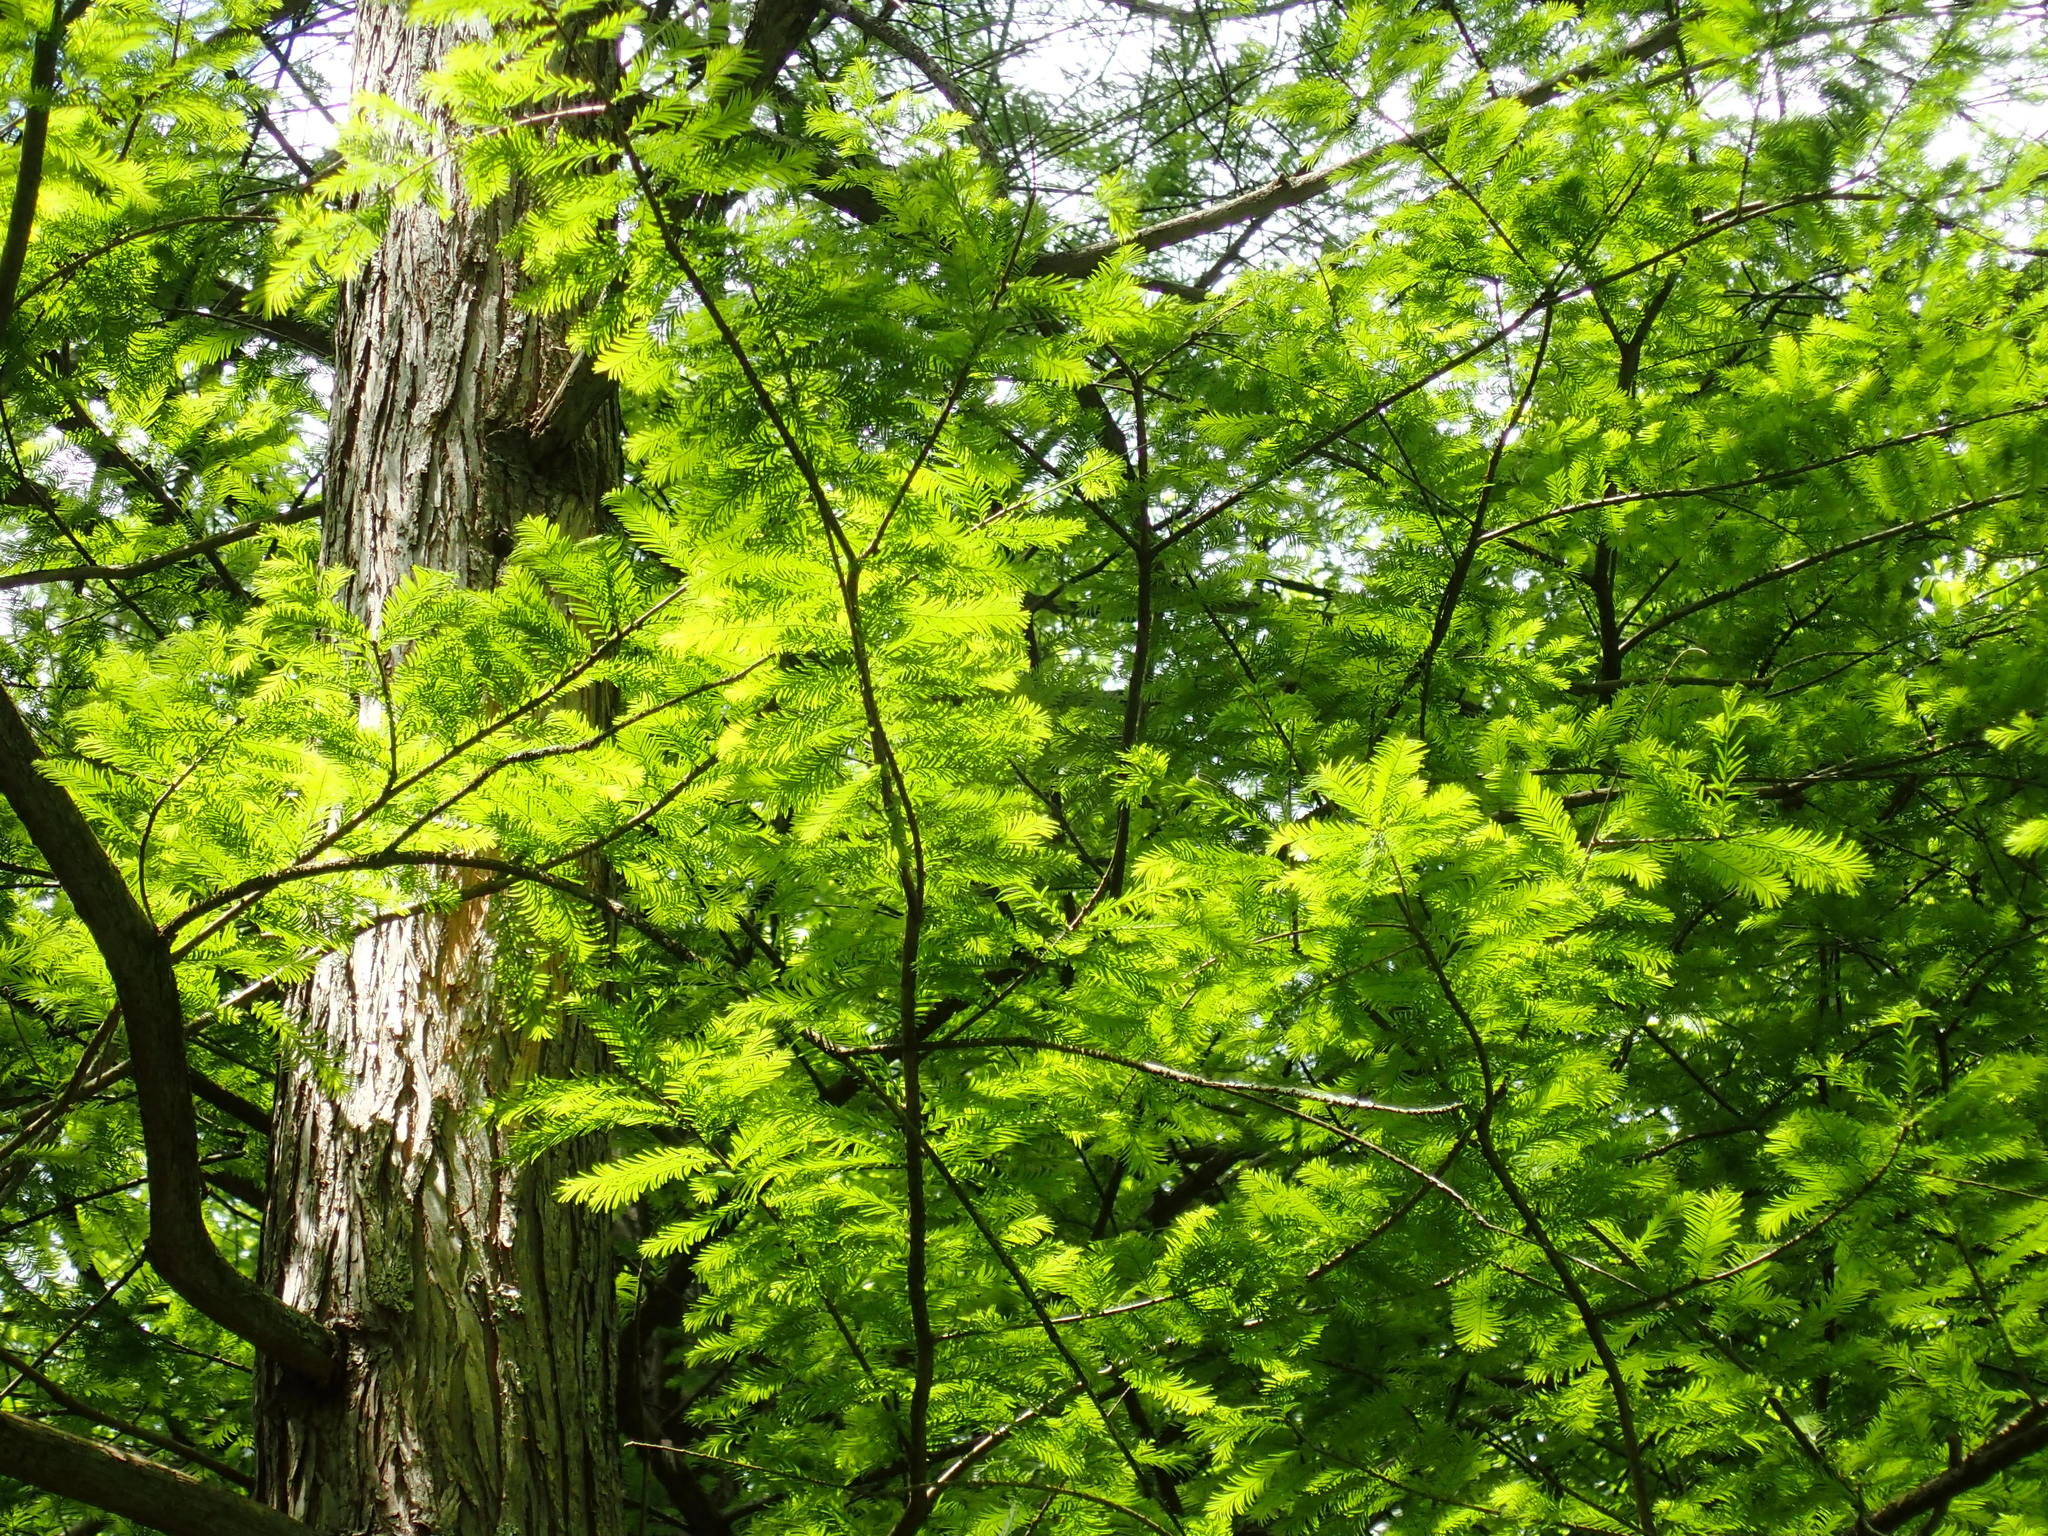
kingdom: Plantae
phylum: Tracheophyta
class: Pinopsida
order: Pinales
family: Cupressaceae
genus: Taxodium
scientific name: Taxodium distichum
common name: Bald cypress
